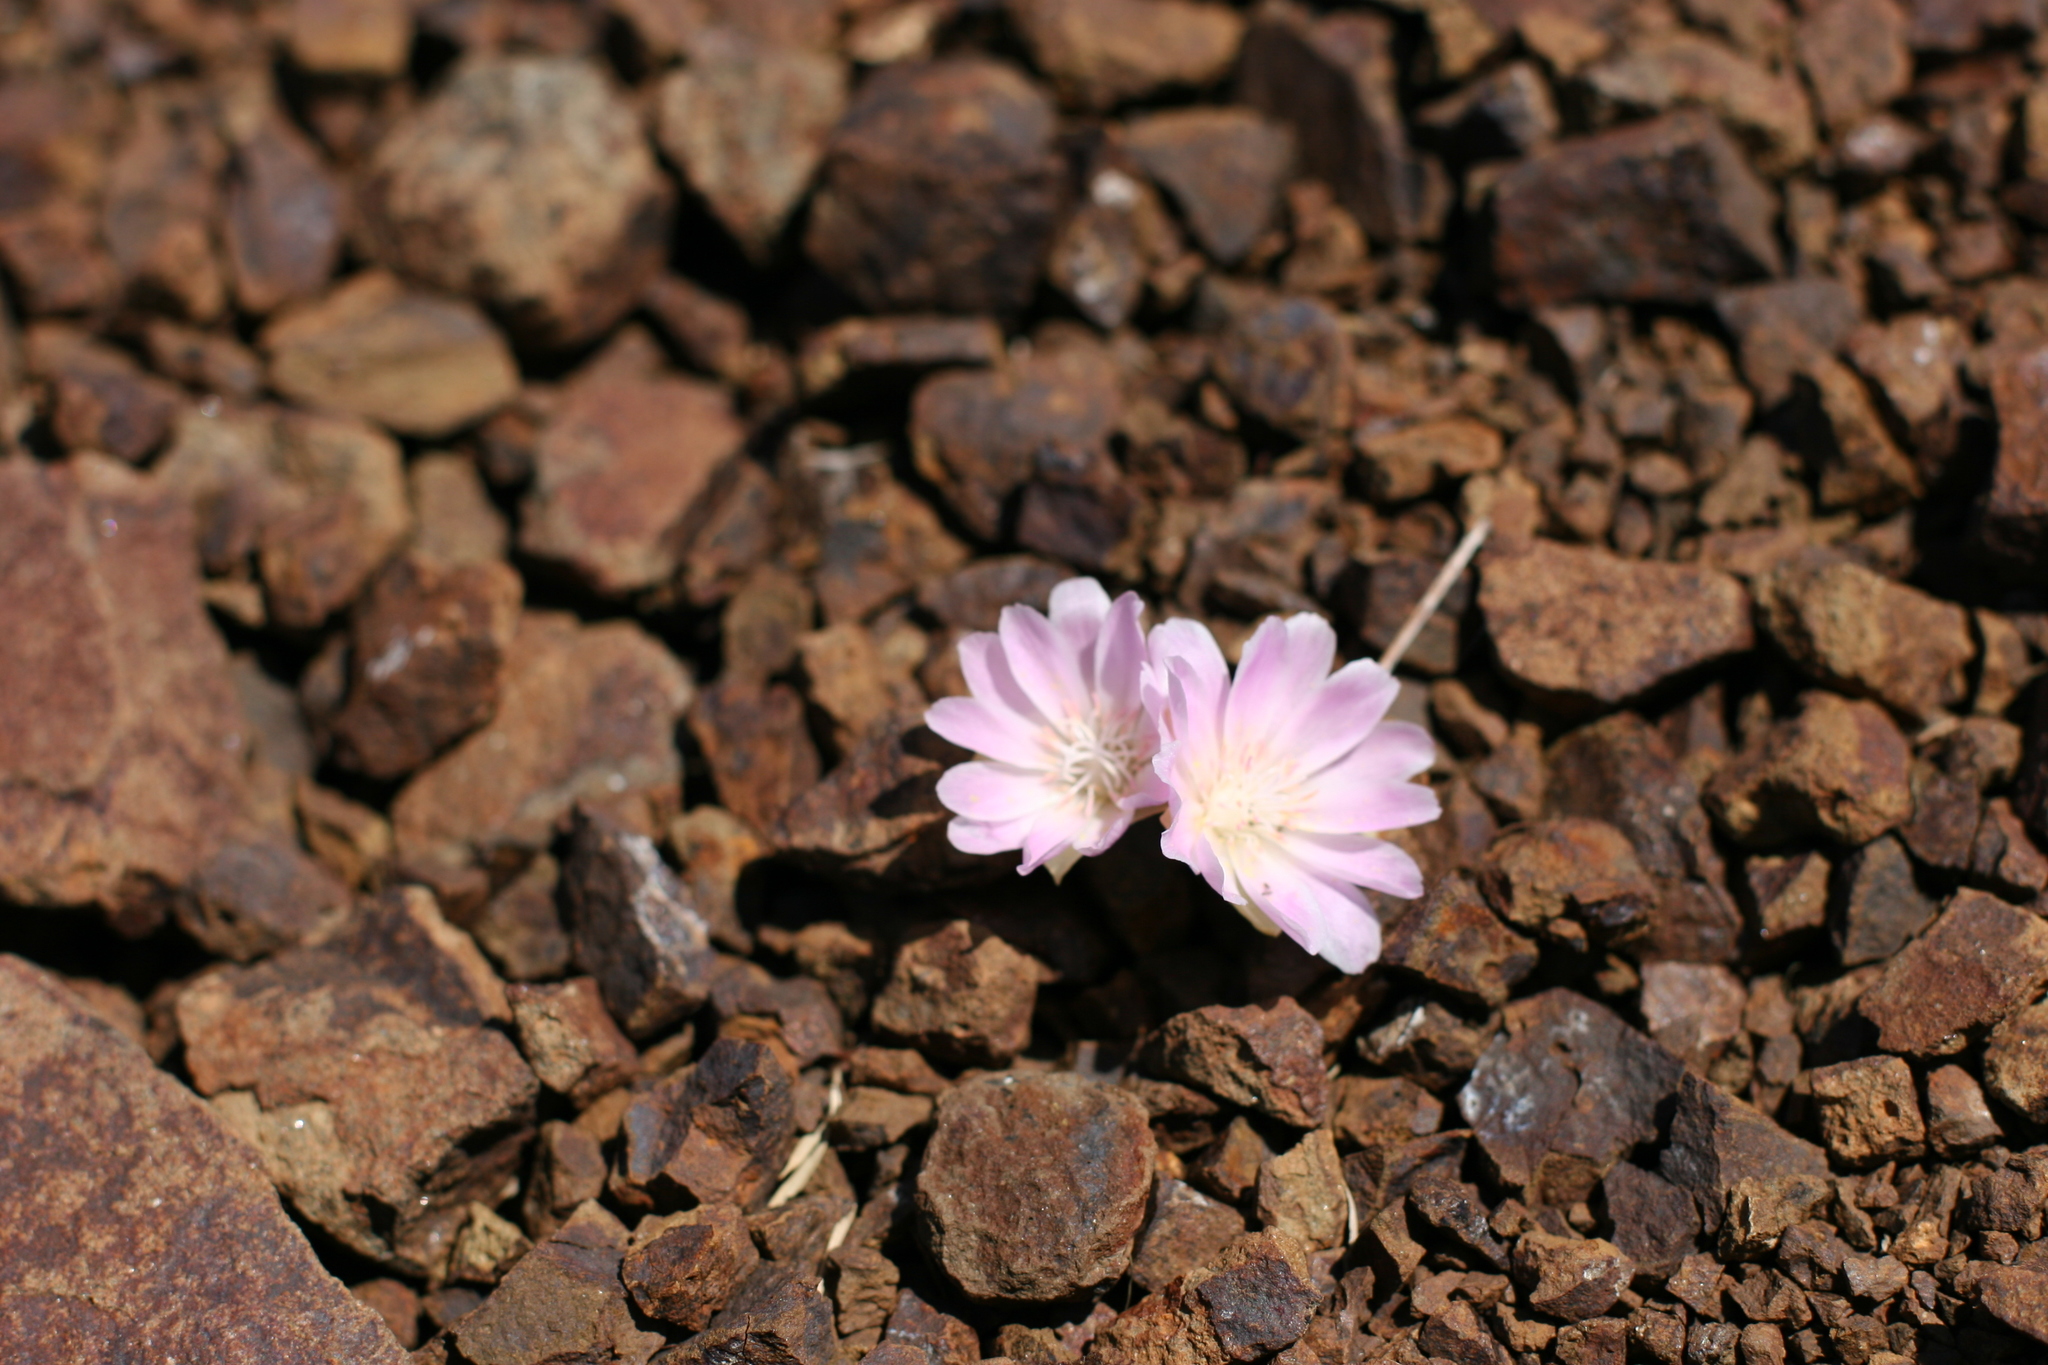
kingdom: Plantae
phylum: Tracheophyta
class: Magnoliopsida
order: Caryophyllales
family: Montiaceae
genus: Lewisia
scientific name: Lewisia rediviva
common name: Bitter-root
